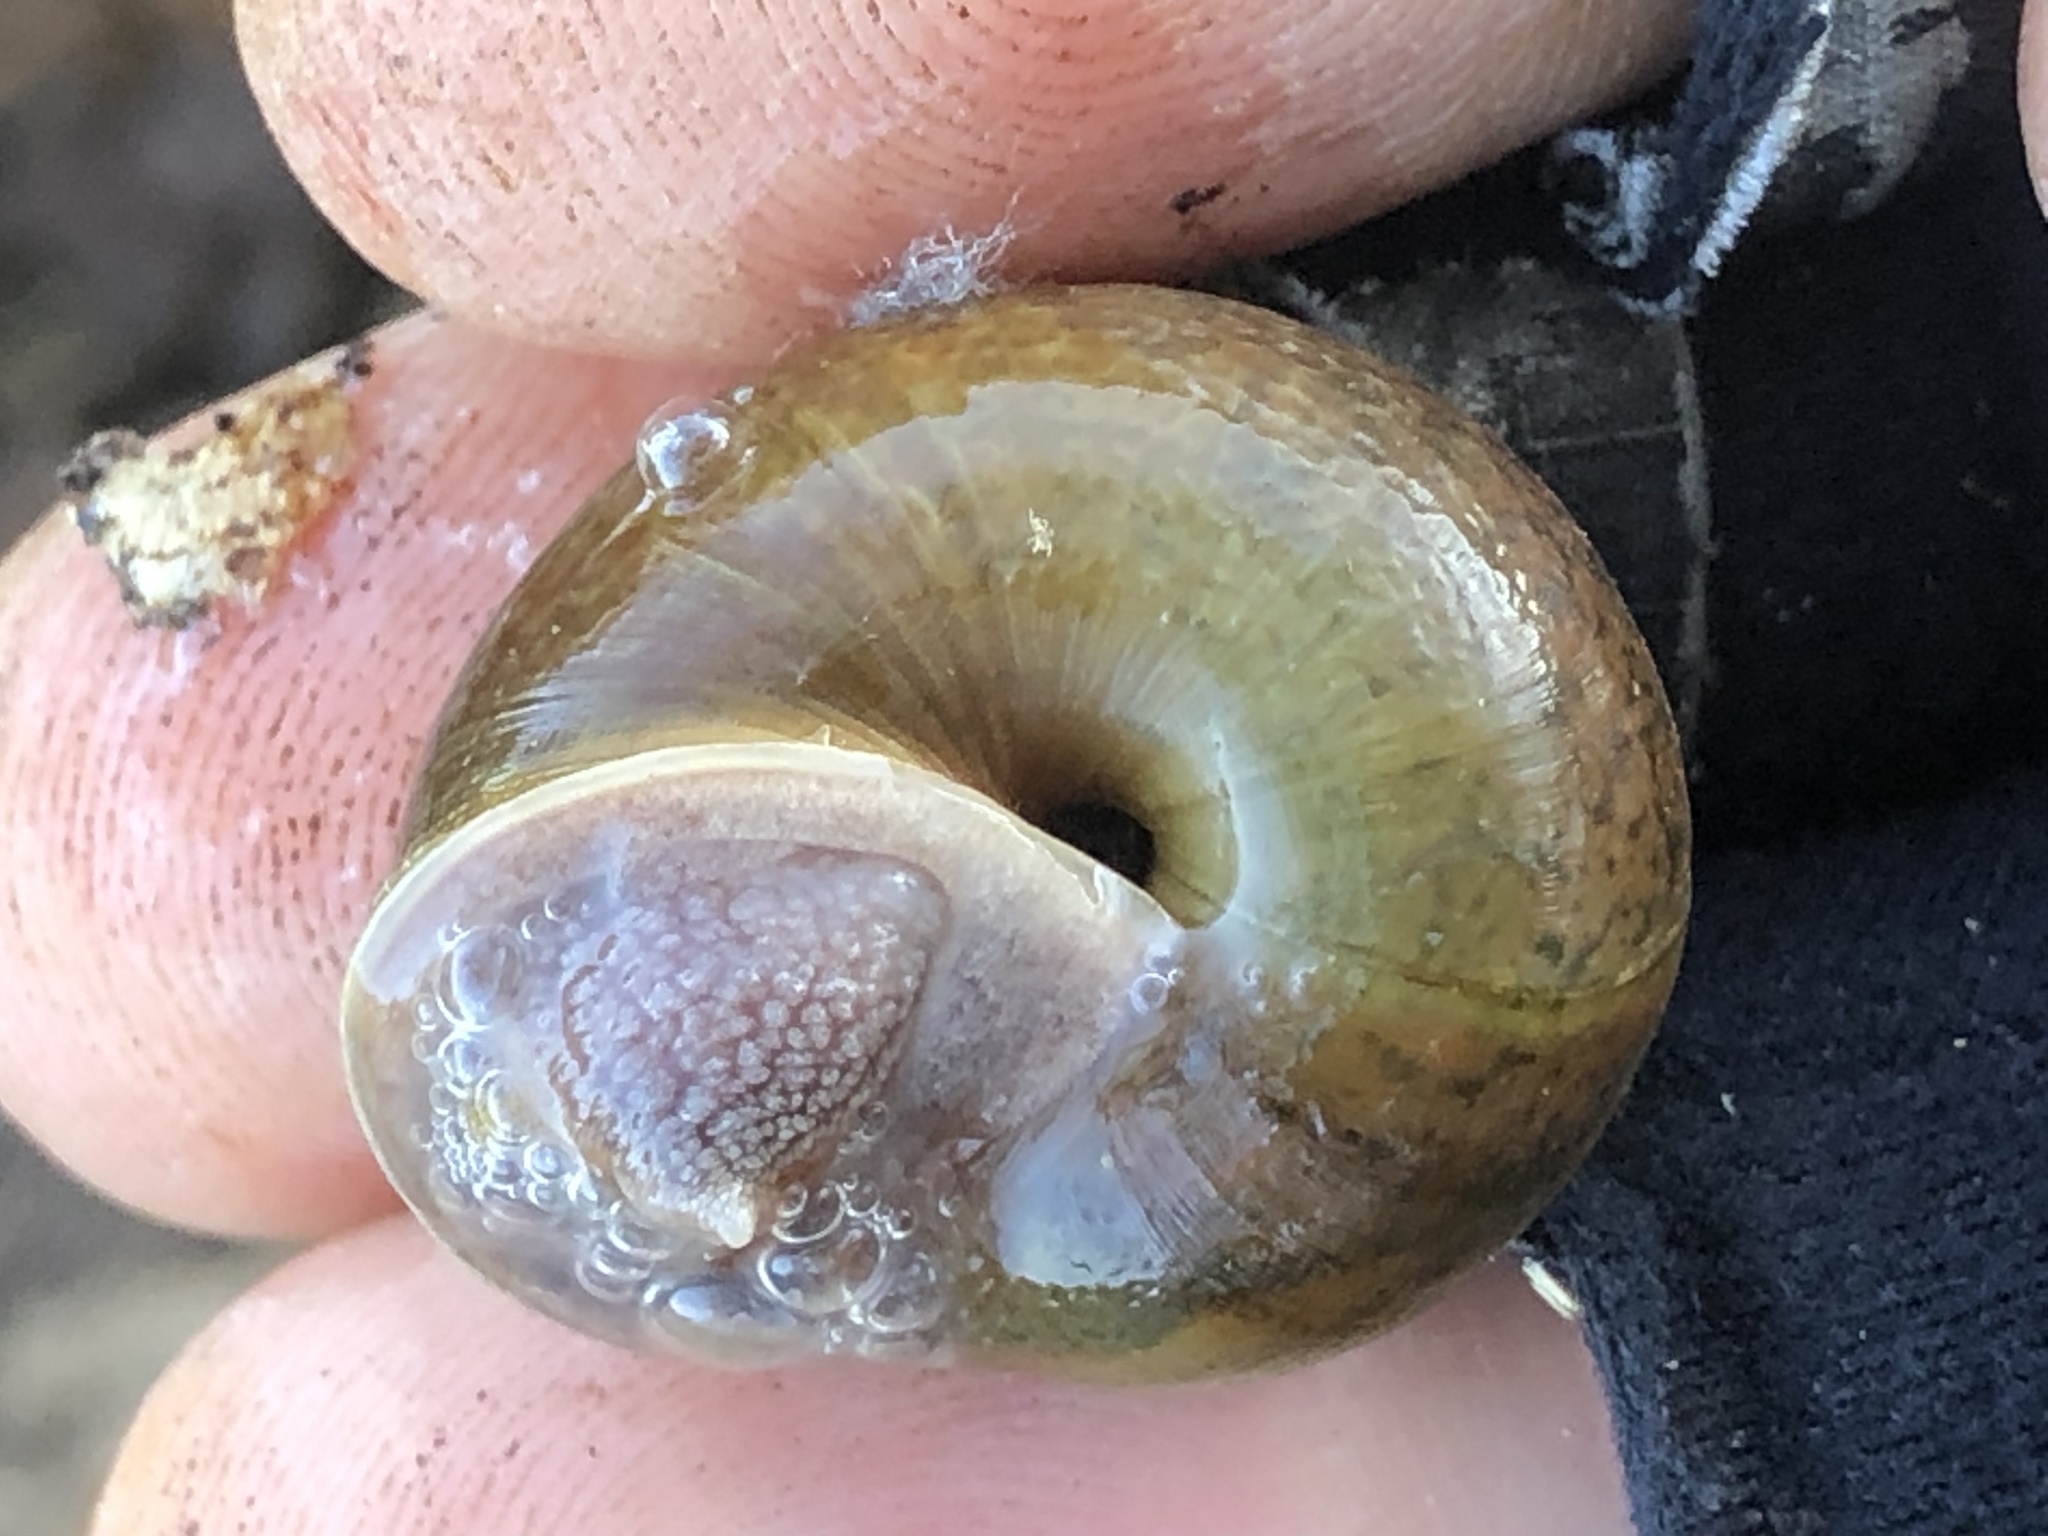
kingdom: Animalia
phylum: Mollusca
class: Gastropoda
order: Stylommatophora
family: Xanthonychidae
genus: Helminthoglypta
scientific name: Helminthoglypta diabloensis
